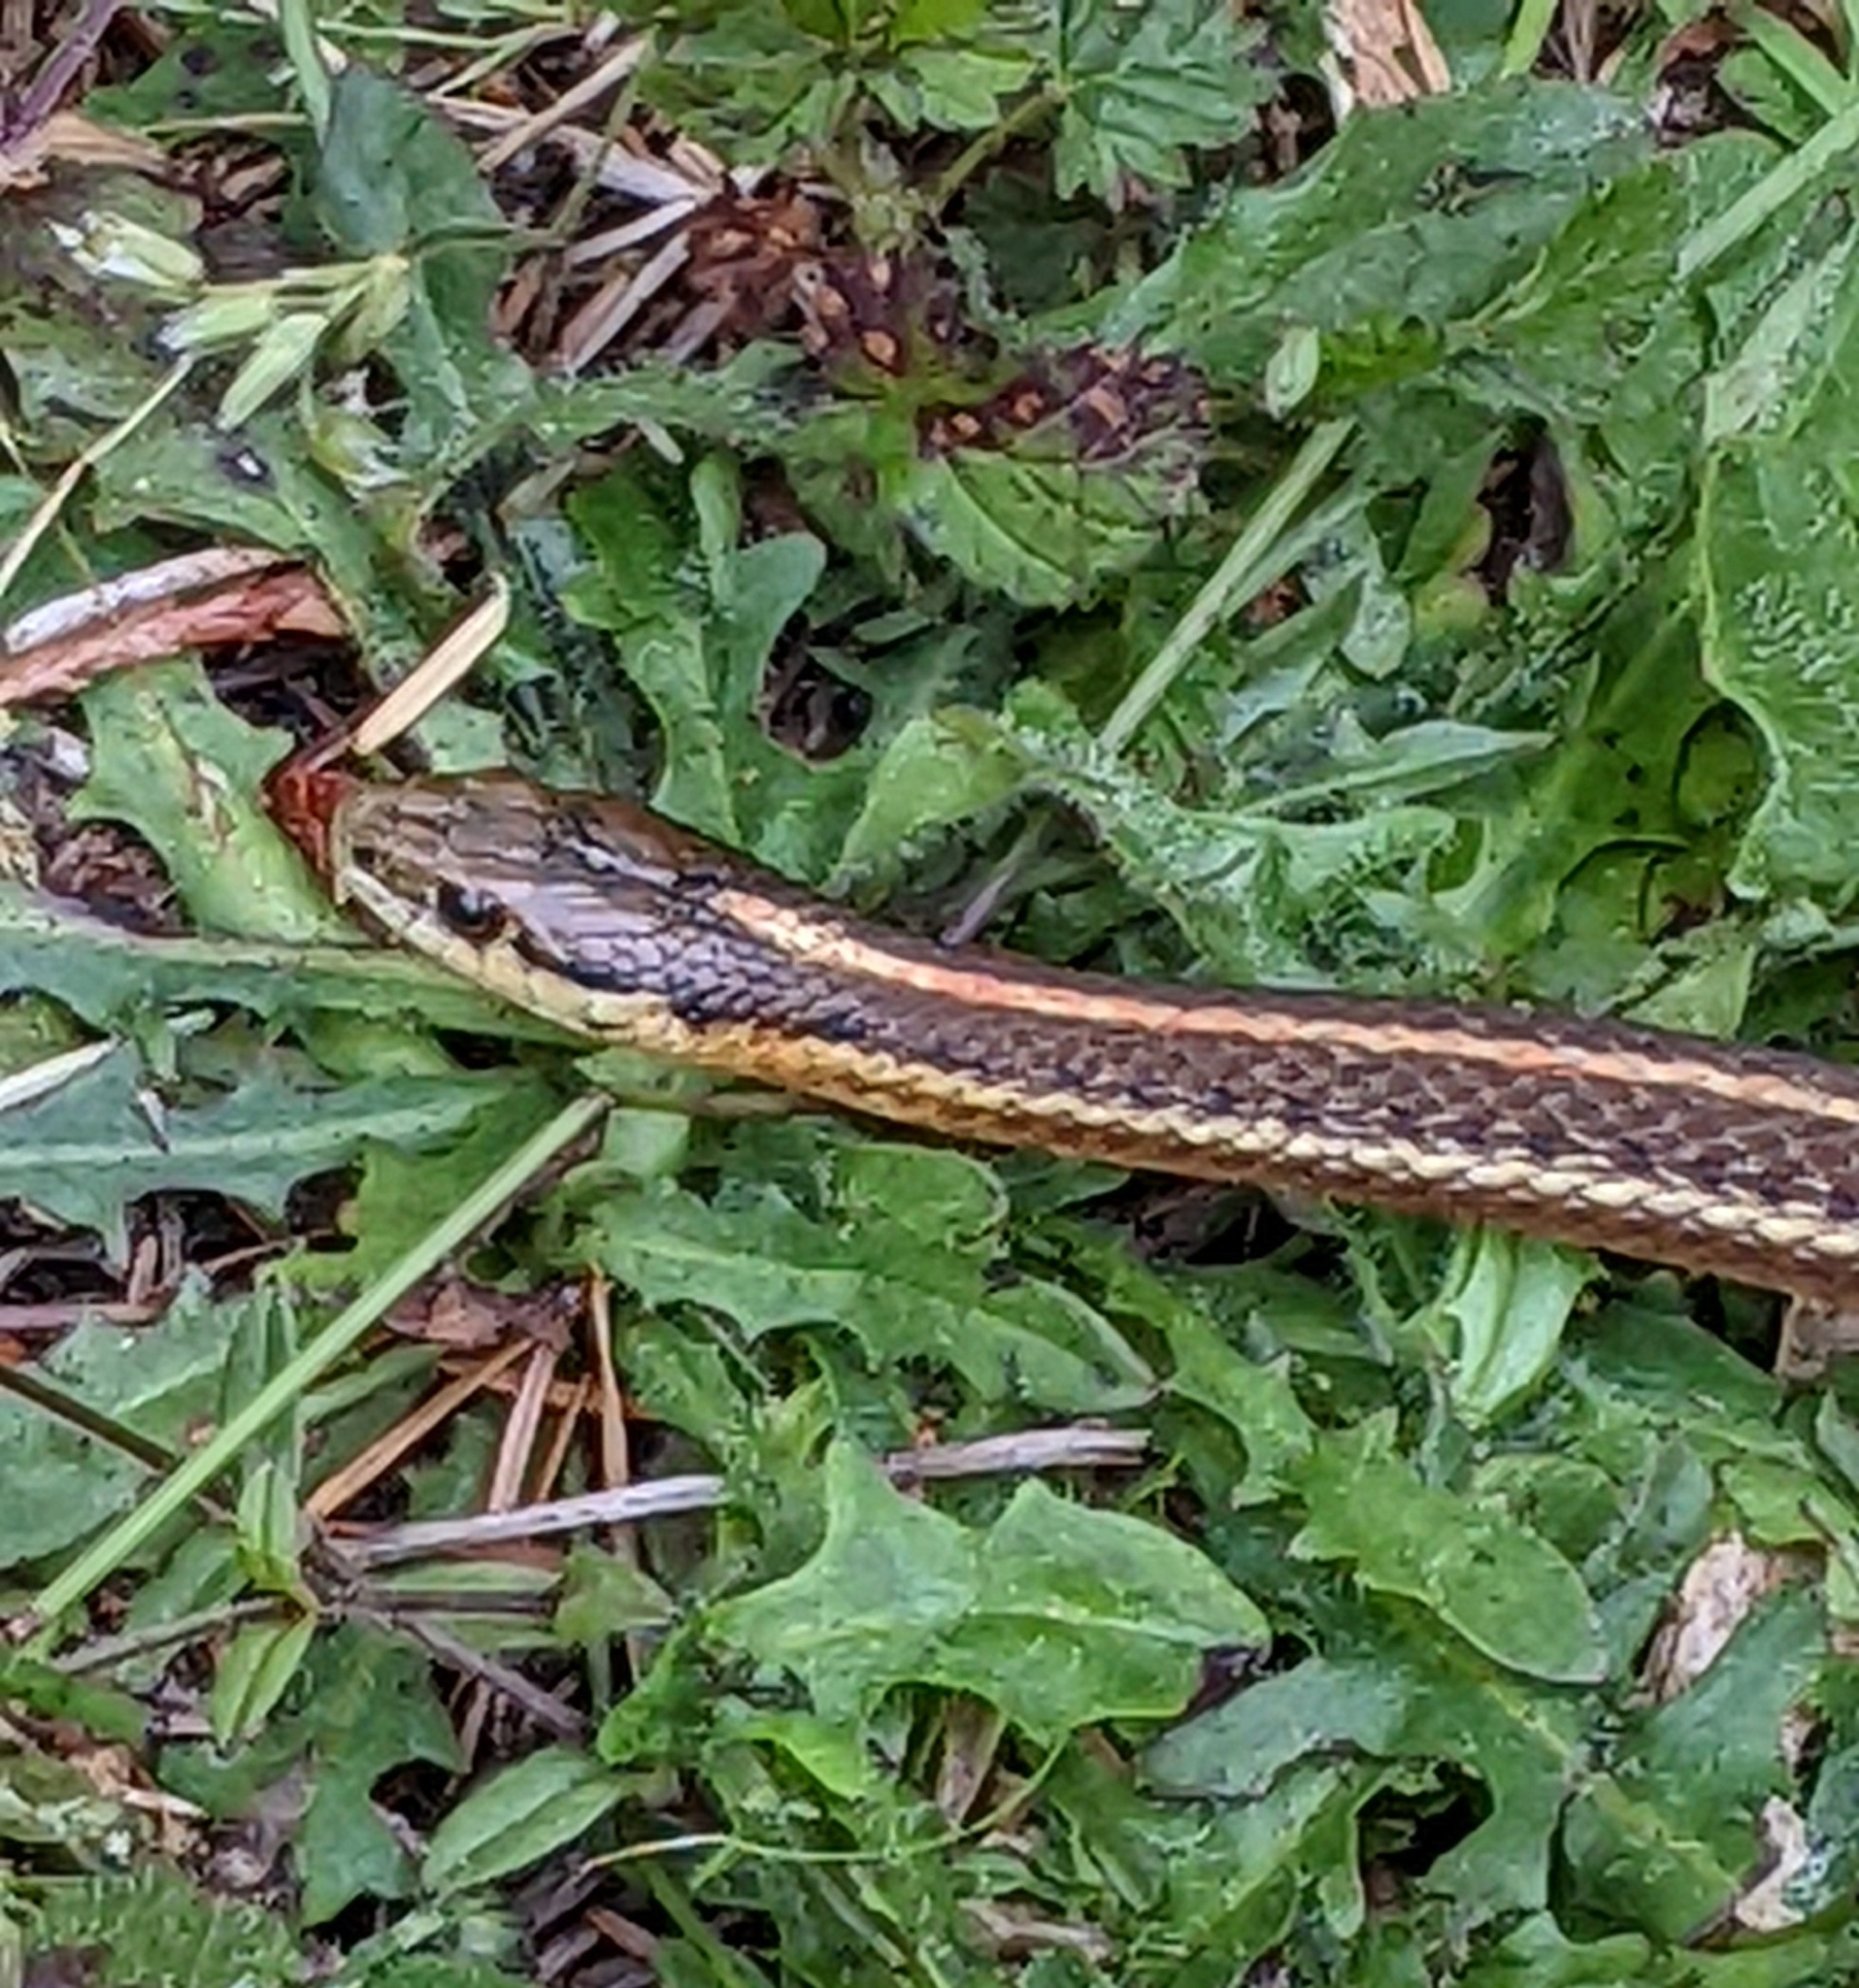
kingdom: Animalia
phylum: Chordata
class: Squamata
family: Colubridae
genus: Thamnophis
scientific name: Thamnophis ordinoides
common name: Northwestern garter snake
